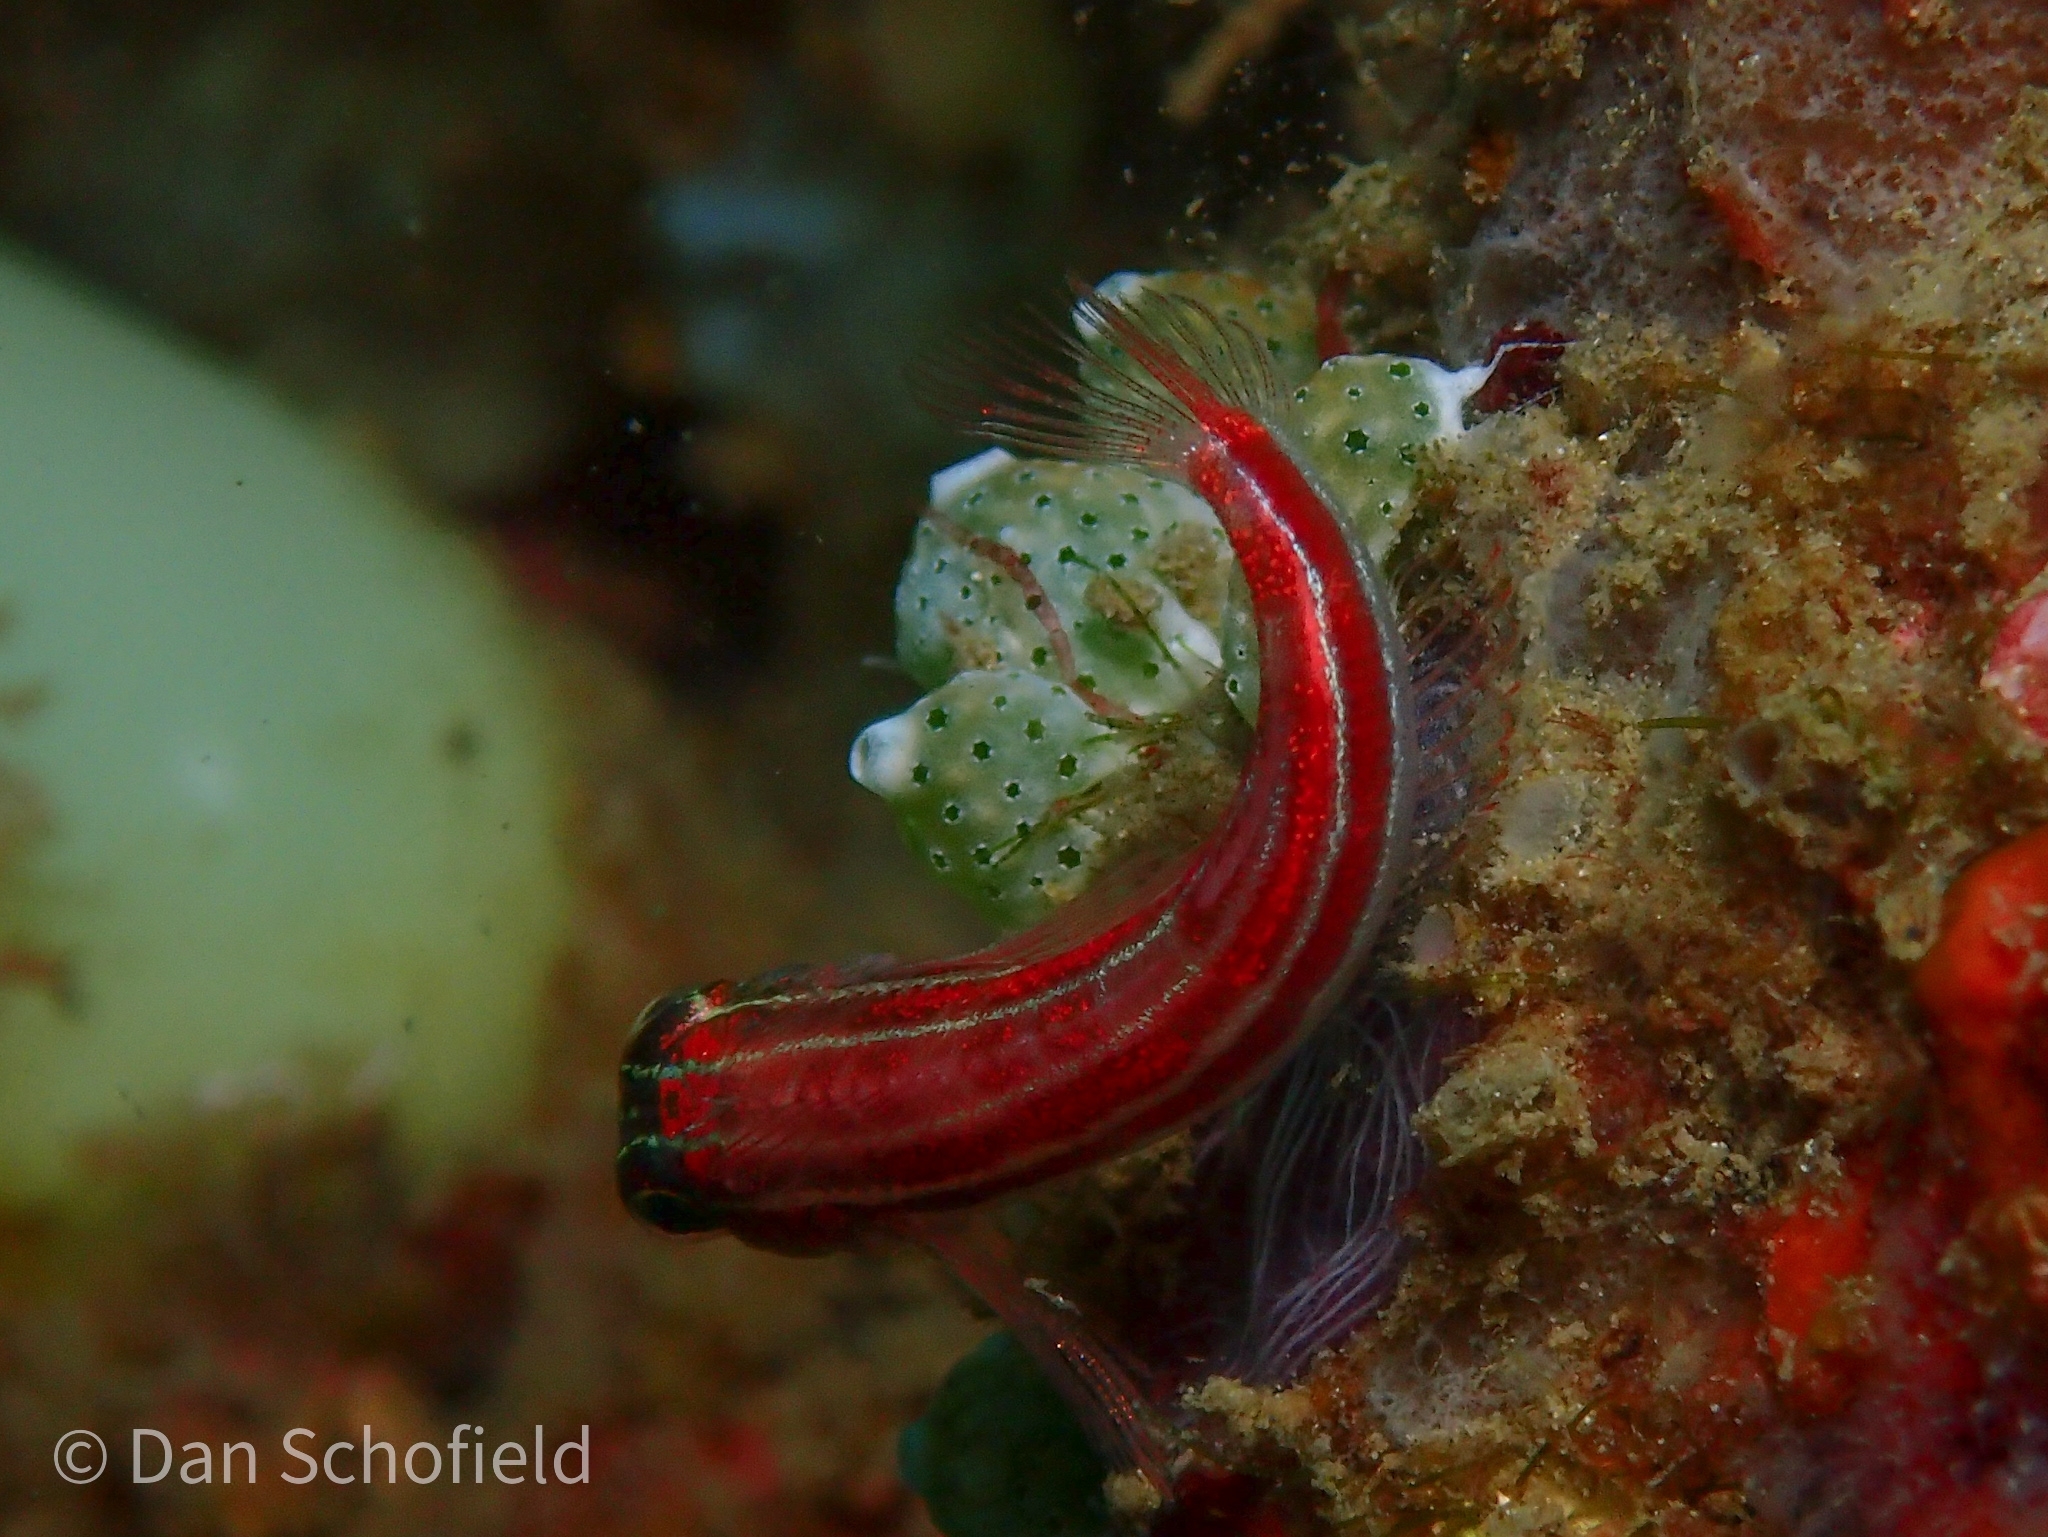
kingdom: Animalia
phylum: Chordata
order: Perciformes
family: Tripterygiidae
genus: Helcogramma
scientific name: Helcogramma striata
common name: Striped threefin
